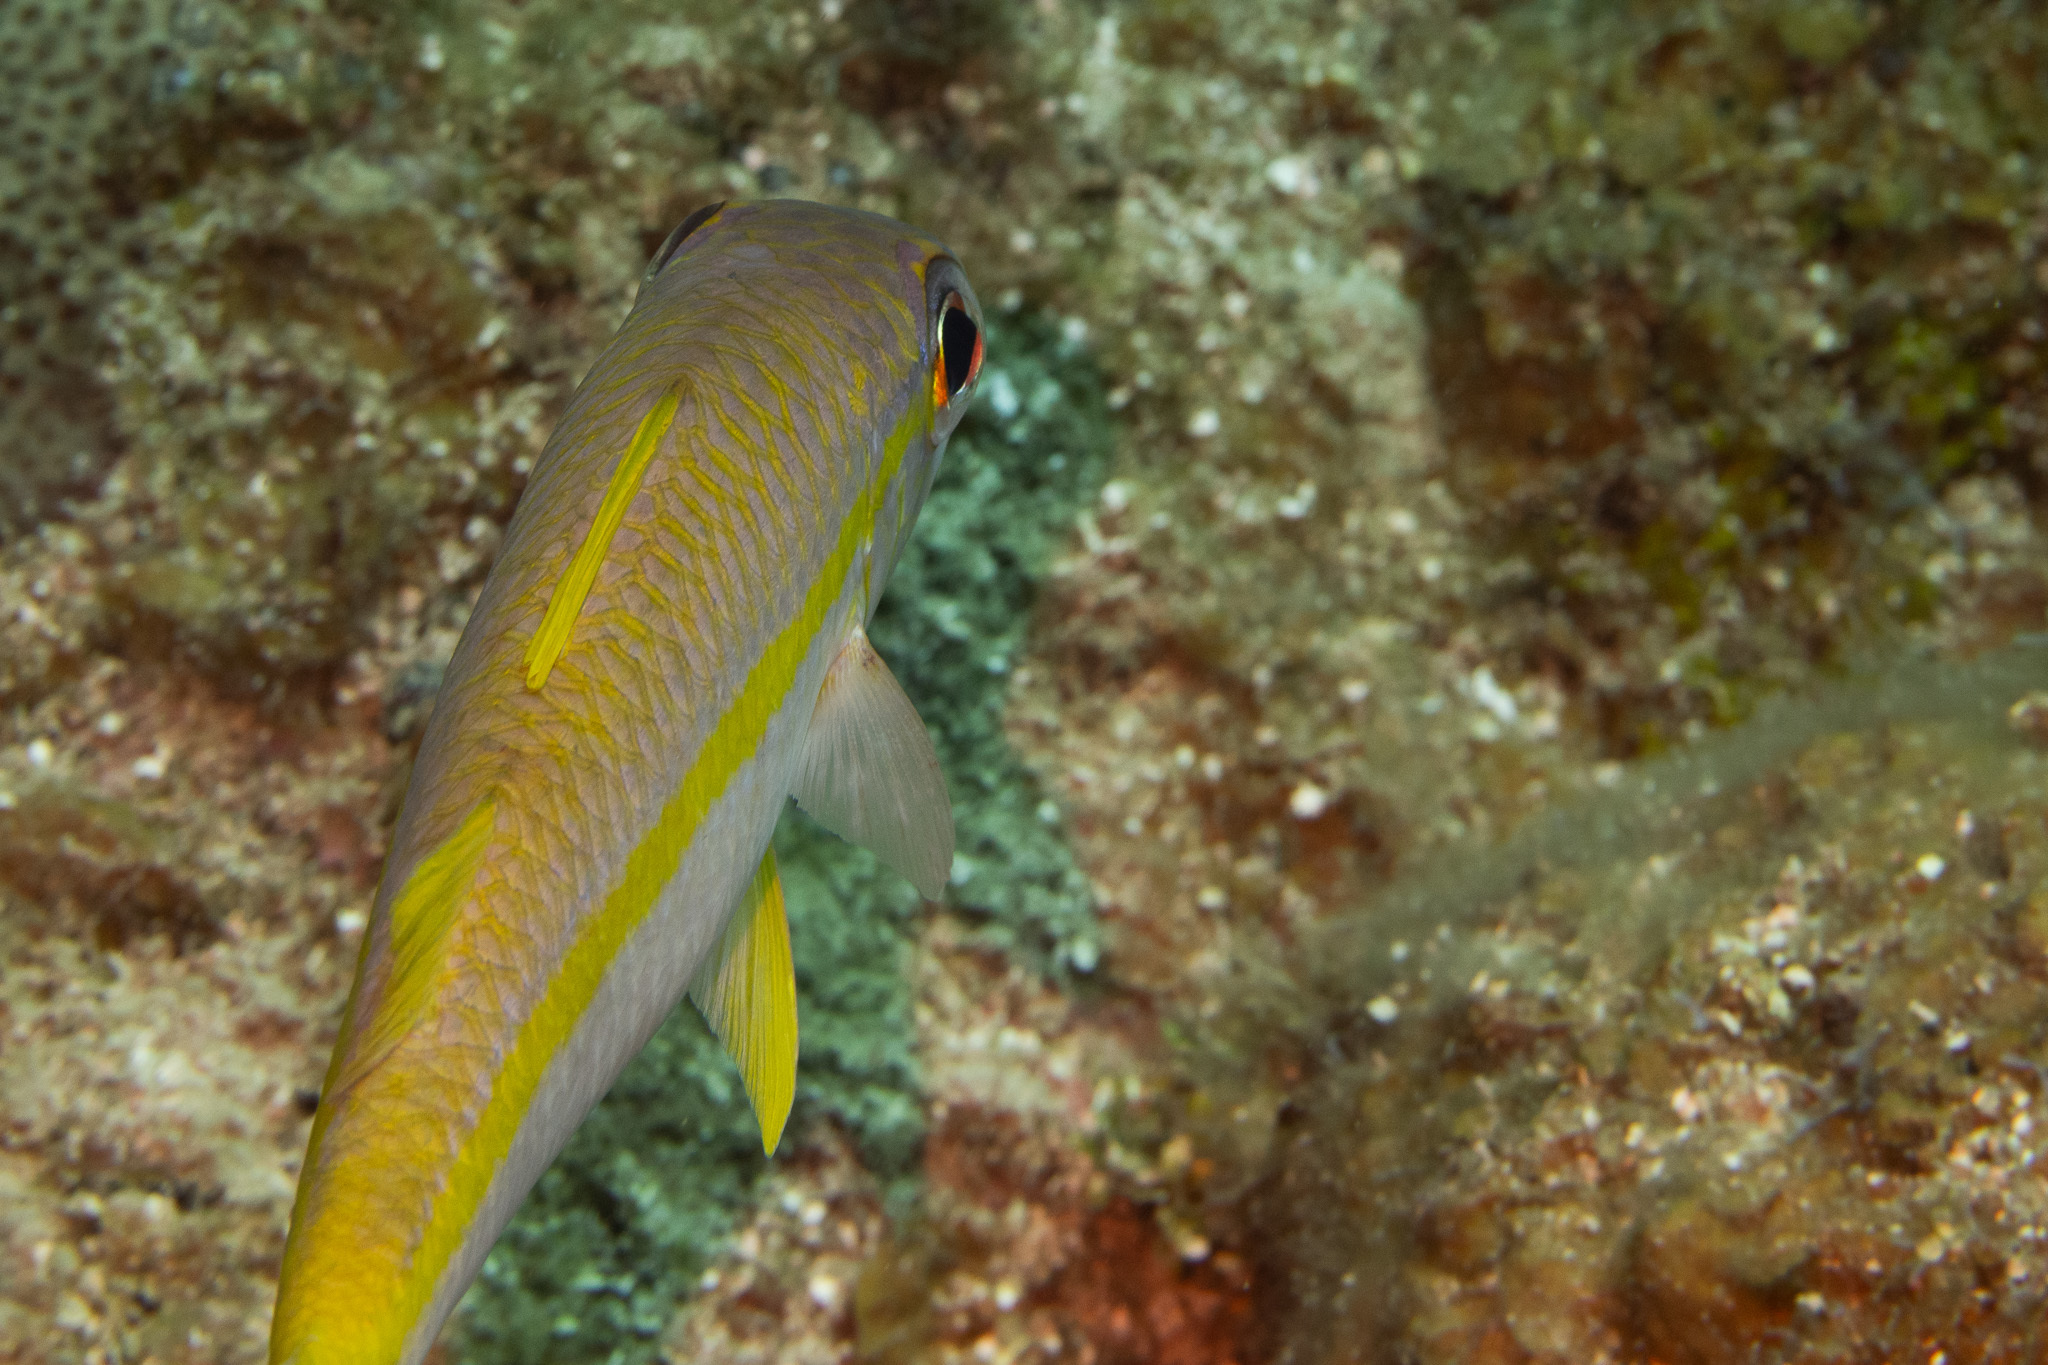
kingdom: Animalia
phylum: Chordata
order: Perciformes
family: Mullidae
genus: Mulloidichthys
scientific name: Mulloidichthys martinicus
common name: Yellow goatfish
